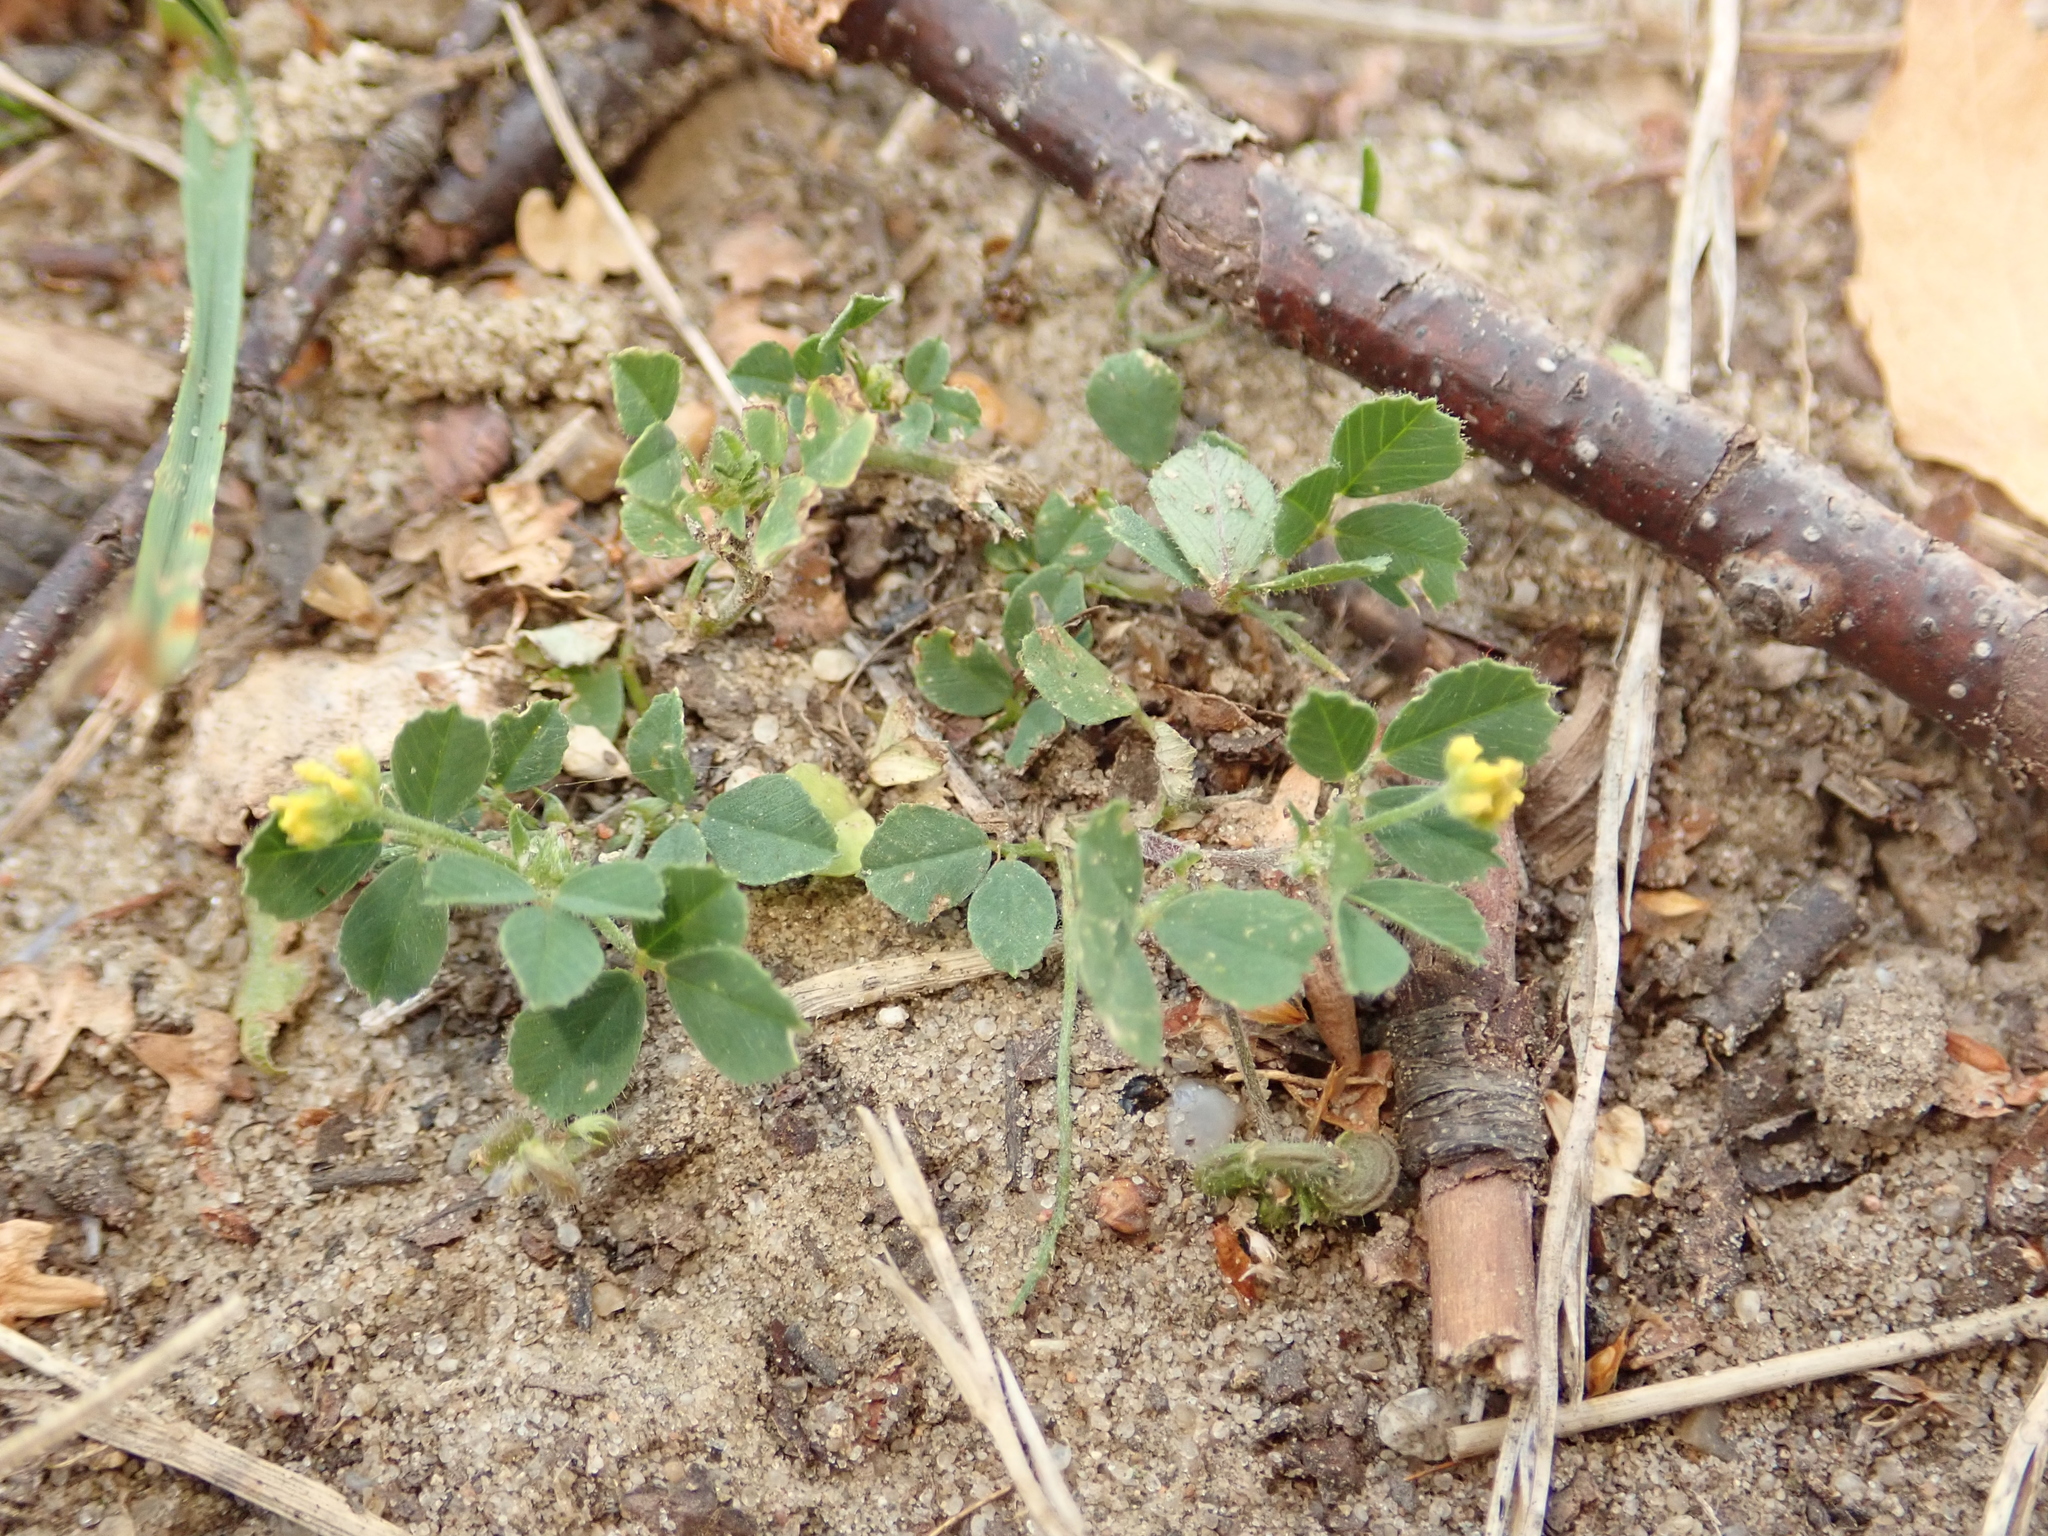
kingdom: Plantae
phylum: Tracheophyta
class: Magnoliopsida
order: Fabales
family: Fabaceae
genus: Medicago
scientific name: Medicago lupulina
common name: Black medick
